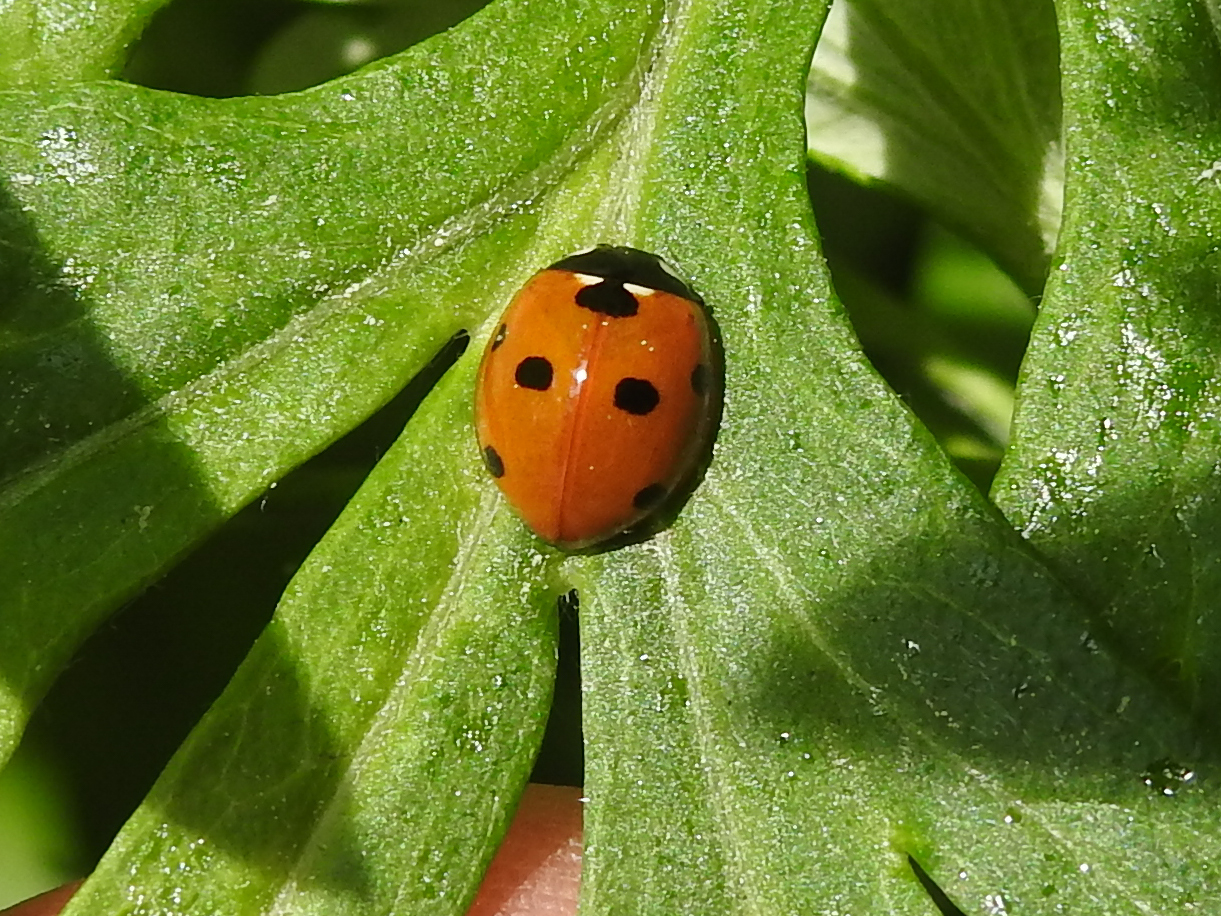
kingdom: Animalia
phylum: Arthropoda
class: Insecta
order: Coleoptera
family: Coccinellidae
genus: Coccinella
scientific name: Coccinella septempunctata
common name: Sevenspotted lady beetle
